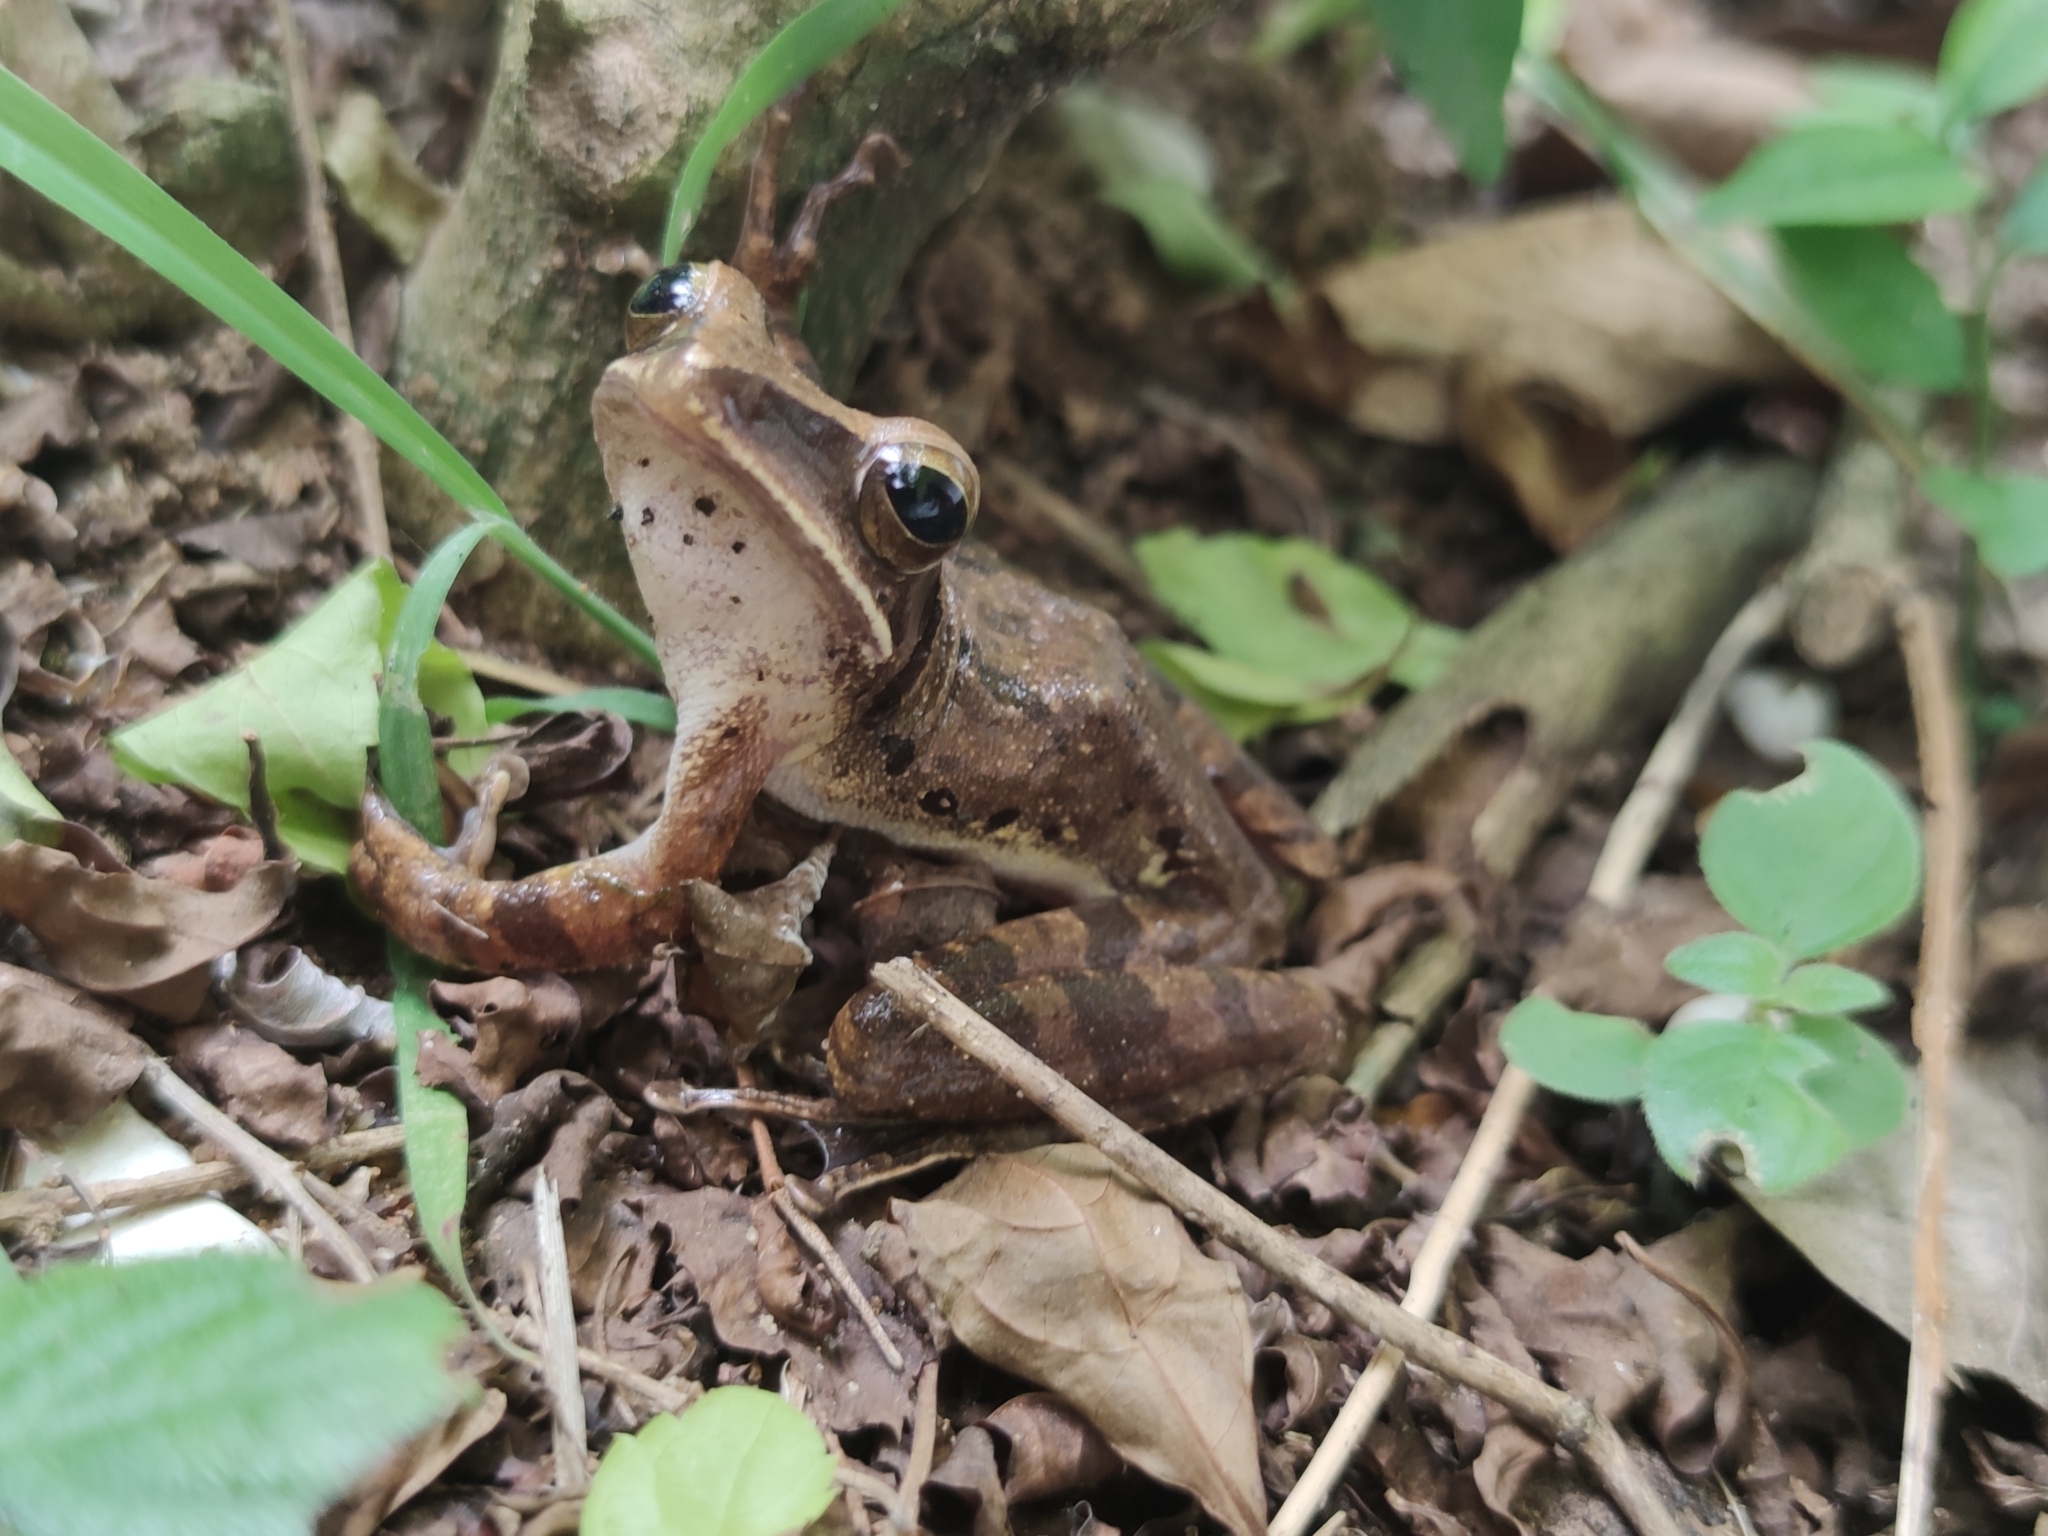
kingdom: Animalia
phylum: Chordata
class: Amphibia
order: Anura
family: Rhacophoridae
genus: Polypedates
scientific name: Polypedates megacephalus
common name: Hong kong whipping frog
